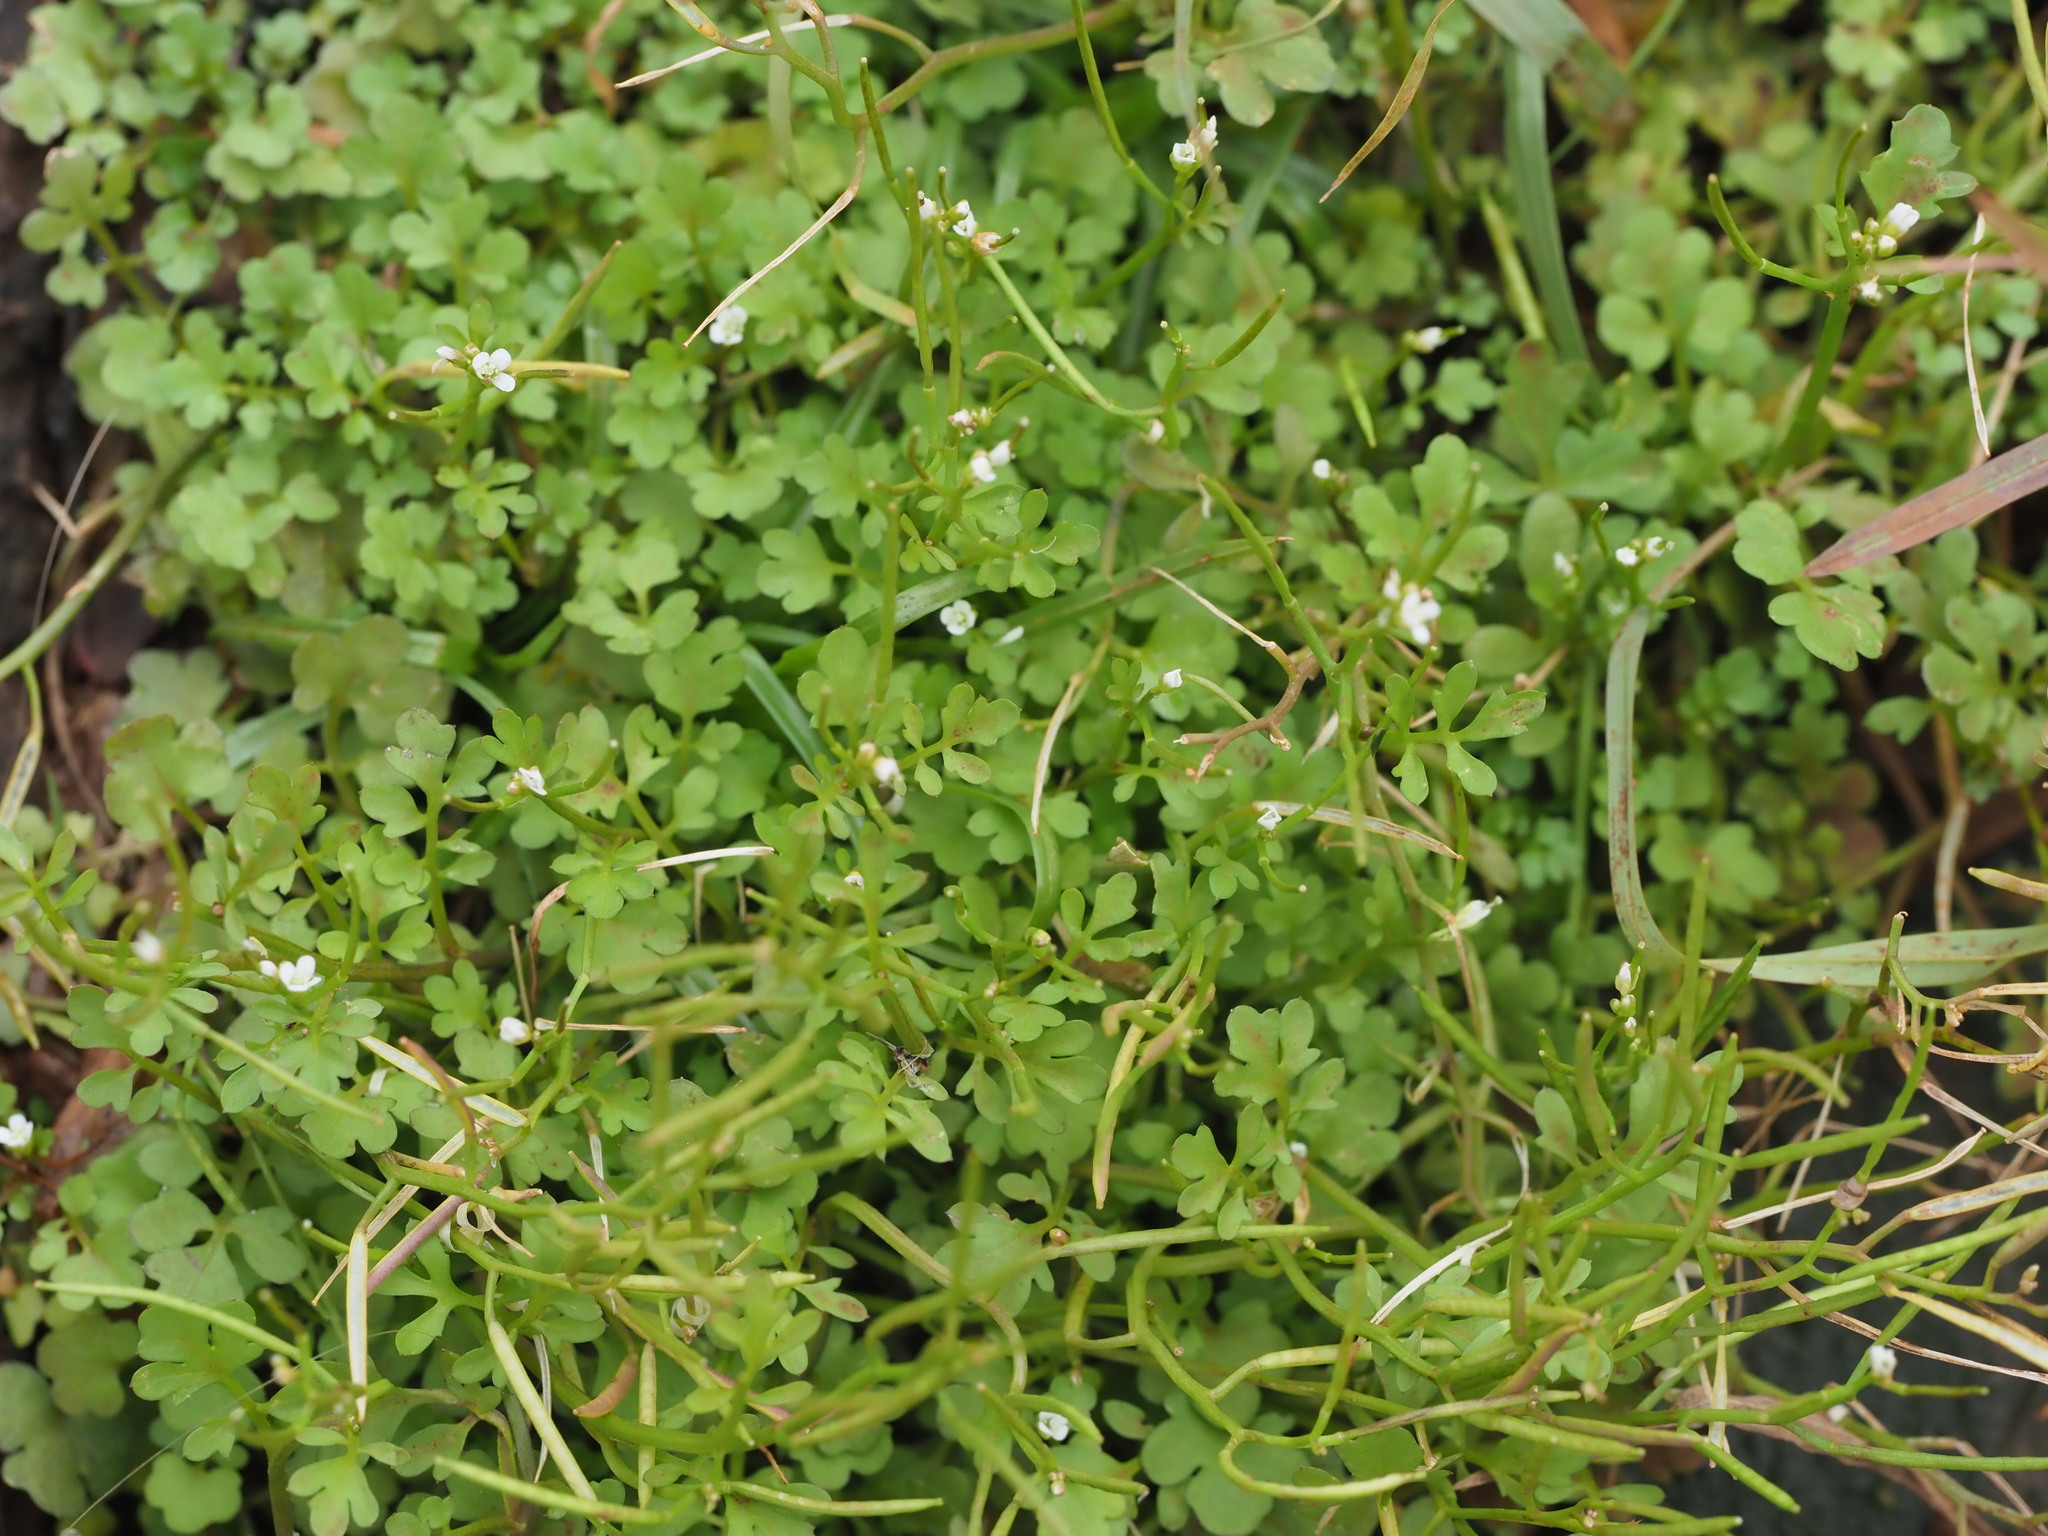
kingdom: Plantae
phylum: Tracheophyta
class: Magnoliopsida
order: Brassicales
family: Brassicaceae
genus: Cardamine
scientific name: Cardamine occulta
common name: Asian wavy bittercress
